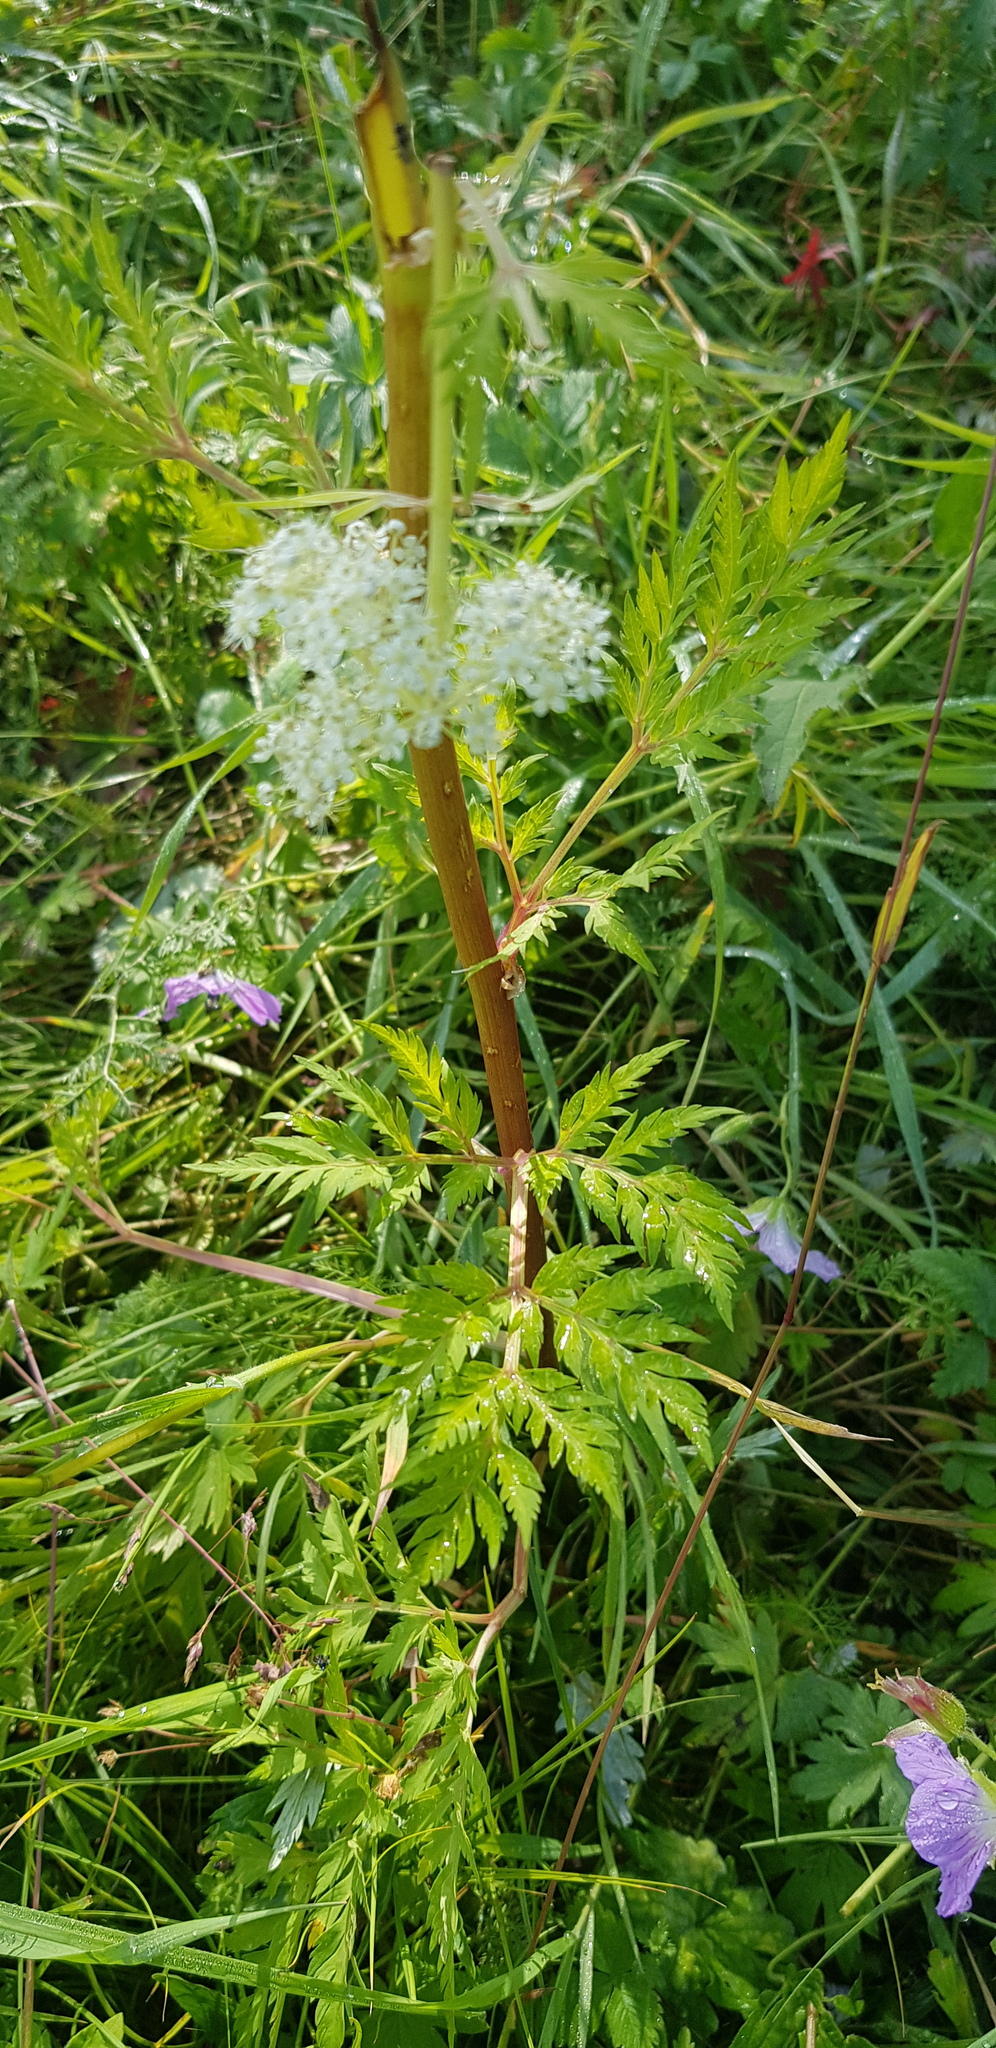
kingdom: Plantae
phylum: Tracheophyta
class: Magnoliopsida
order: Apiales
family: Apiaceae
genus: Pleurospermum
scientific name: Pleurospermum uralense
